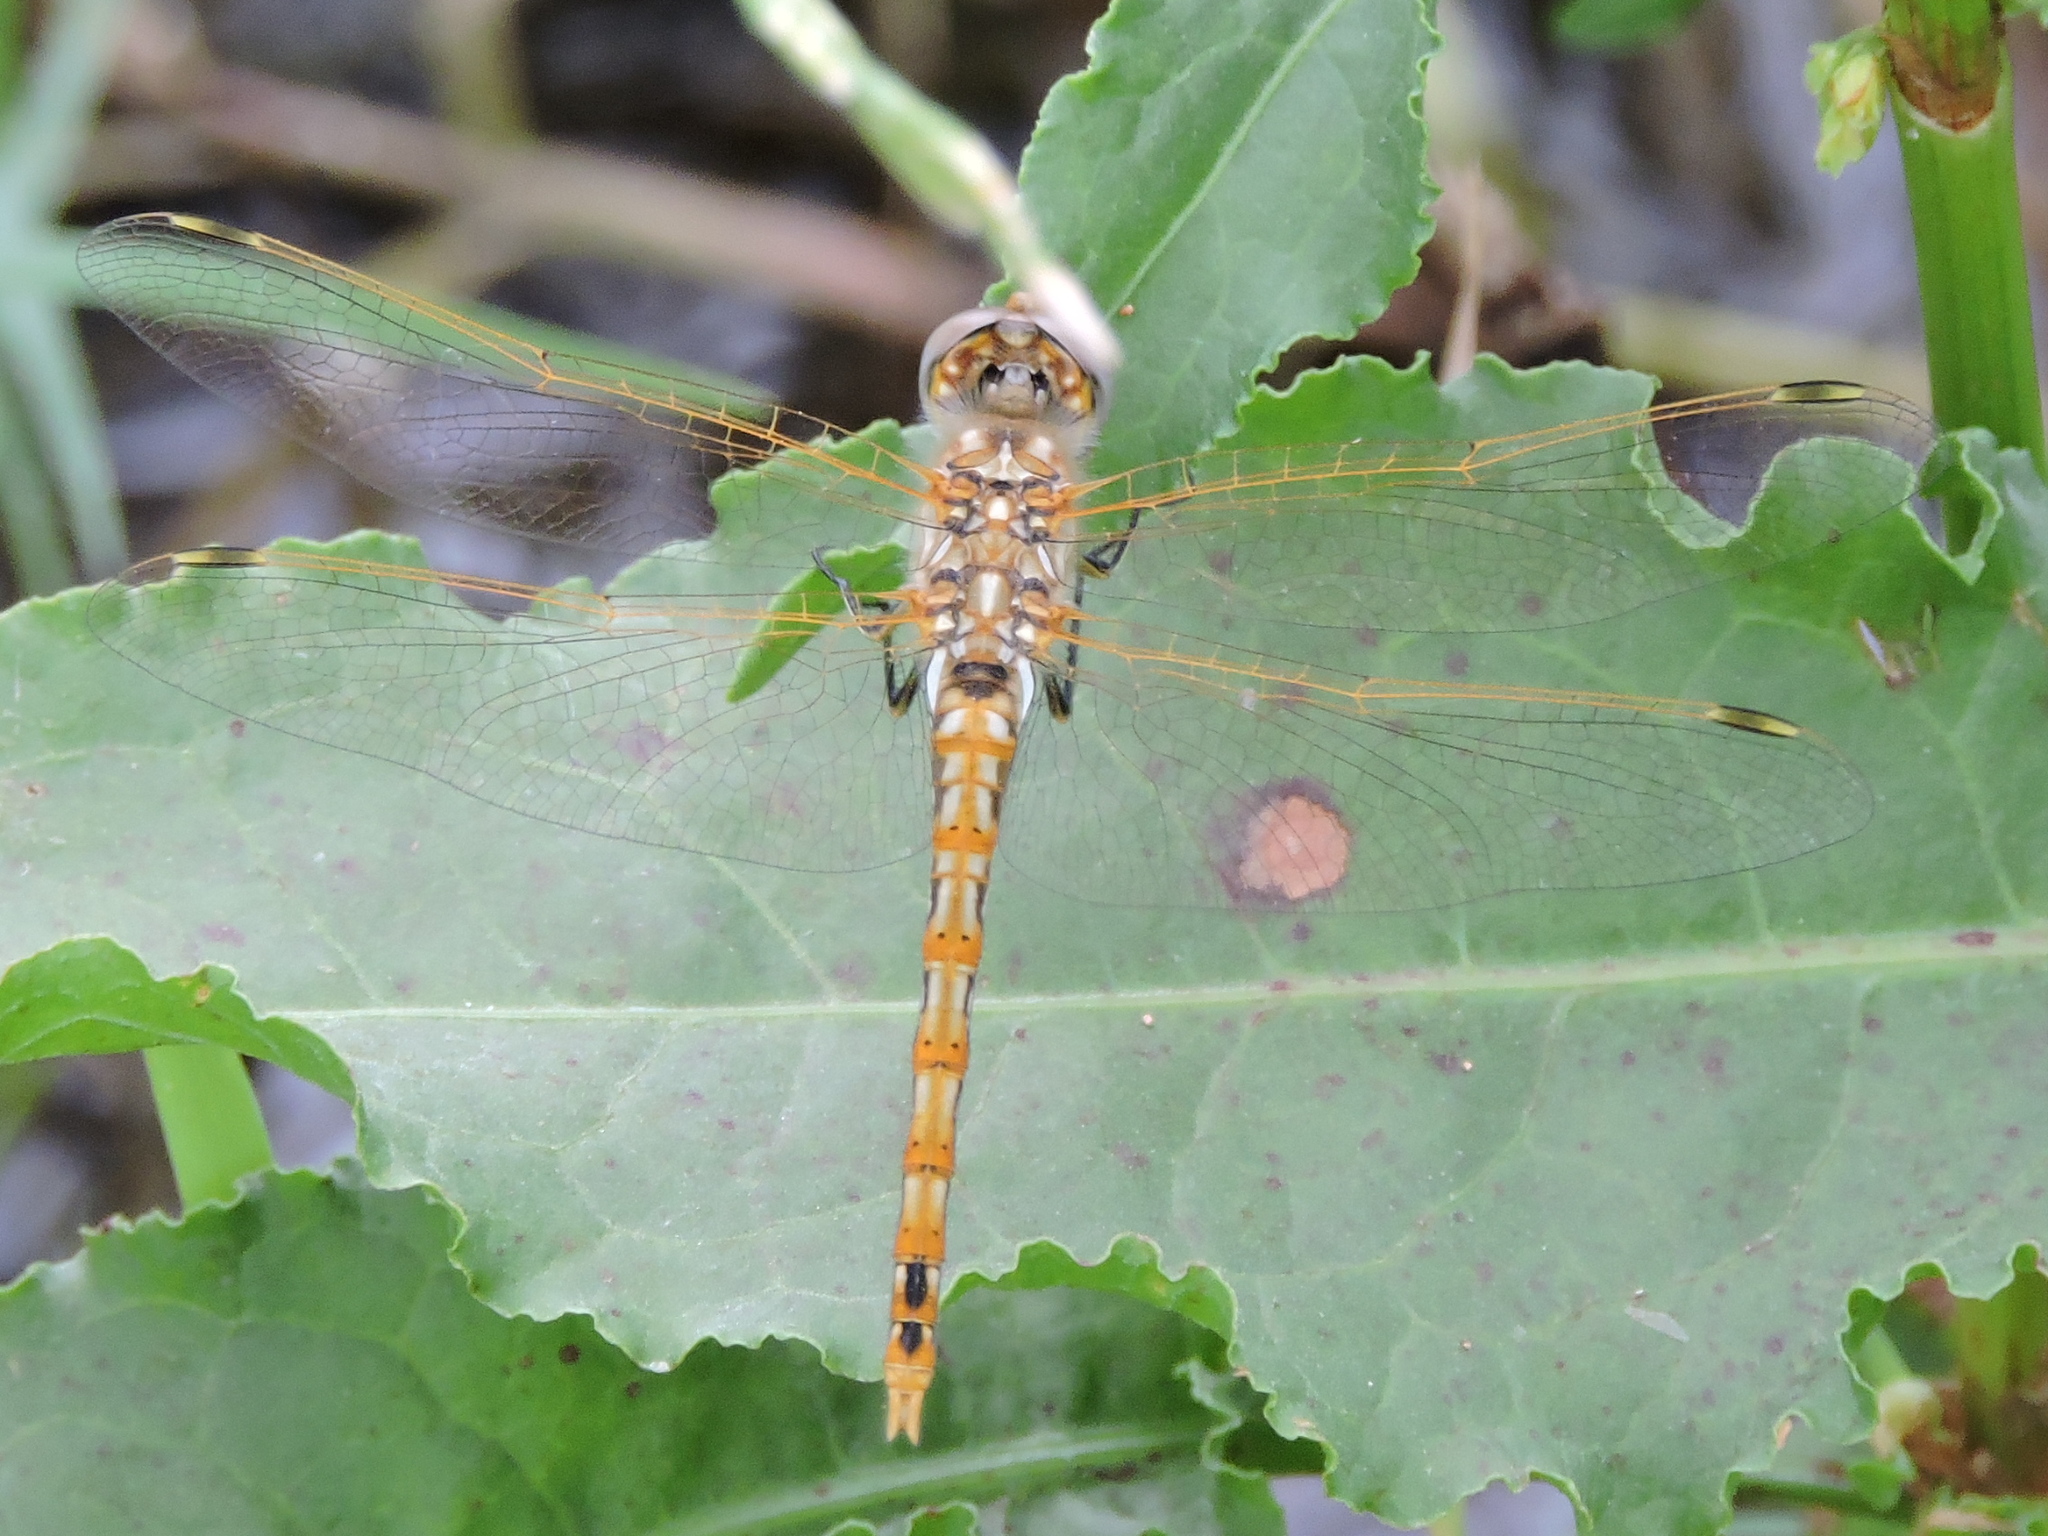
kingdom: Animalia
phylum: Arthropoda
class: Insecta
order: Odonata
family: Libellulidae
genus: Sympetrum
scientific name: Sympetrum corruptum
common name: Variegated meadowhawk
